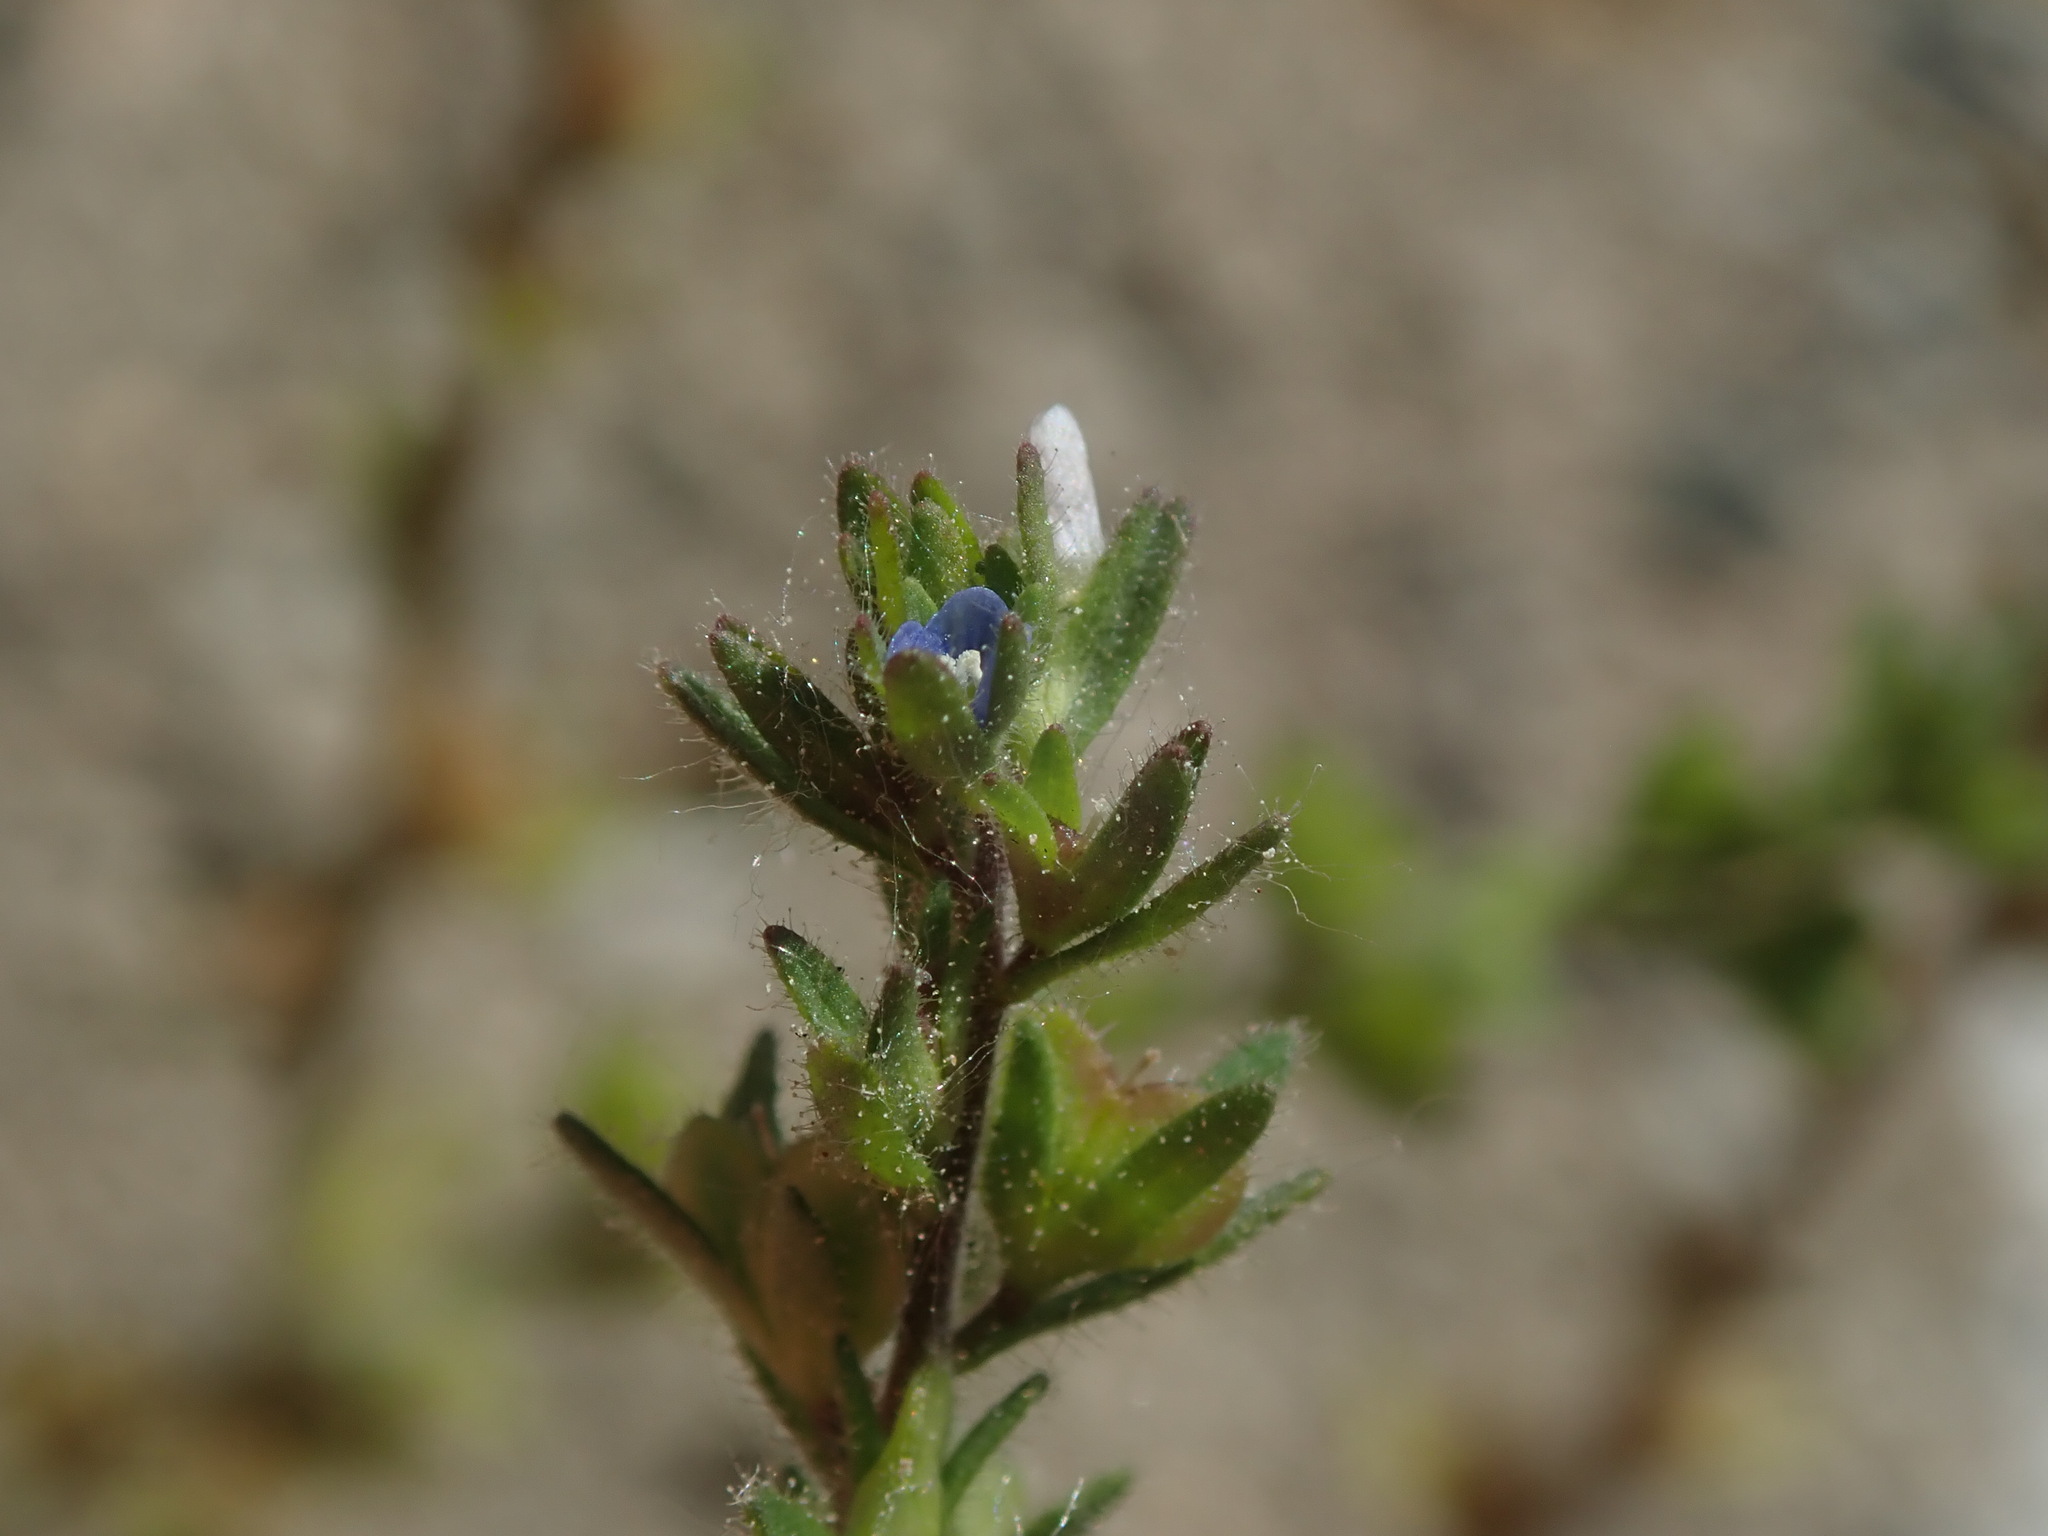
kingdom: Plantae
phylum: Tracheophyta
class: Magnoliopsida
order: Lamiales
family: Plantaginaceae
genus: Veronica
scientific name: Veronica arvensis
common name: Corn speedwell
